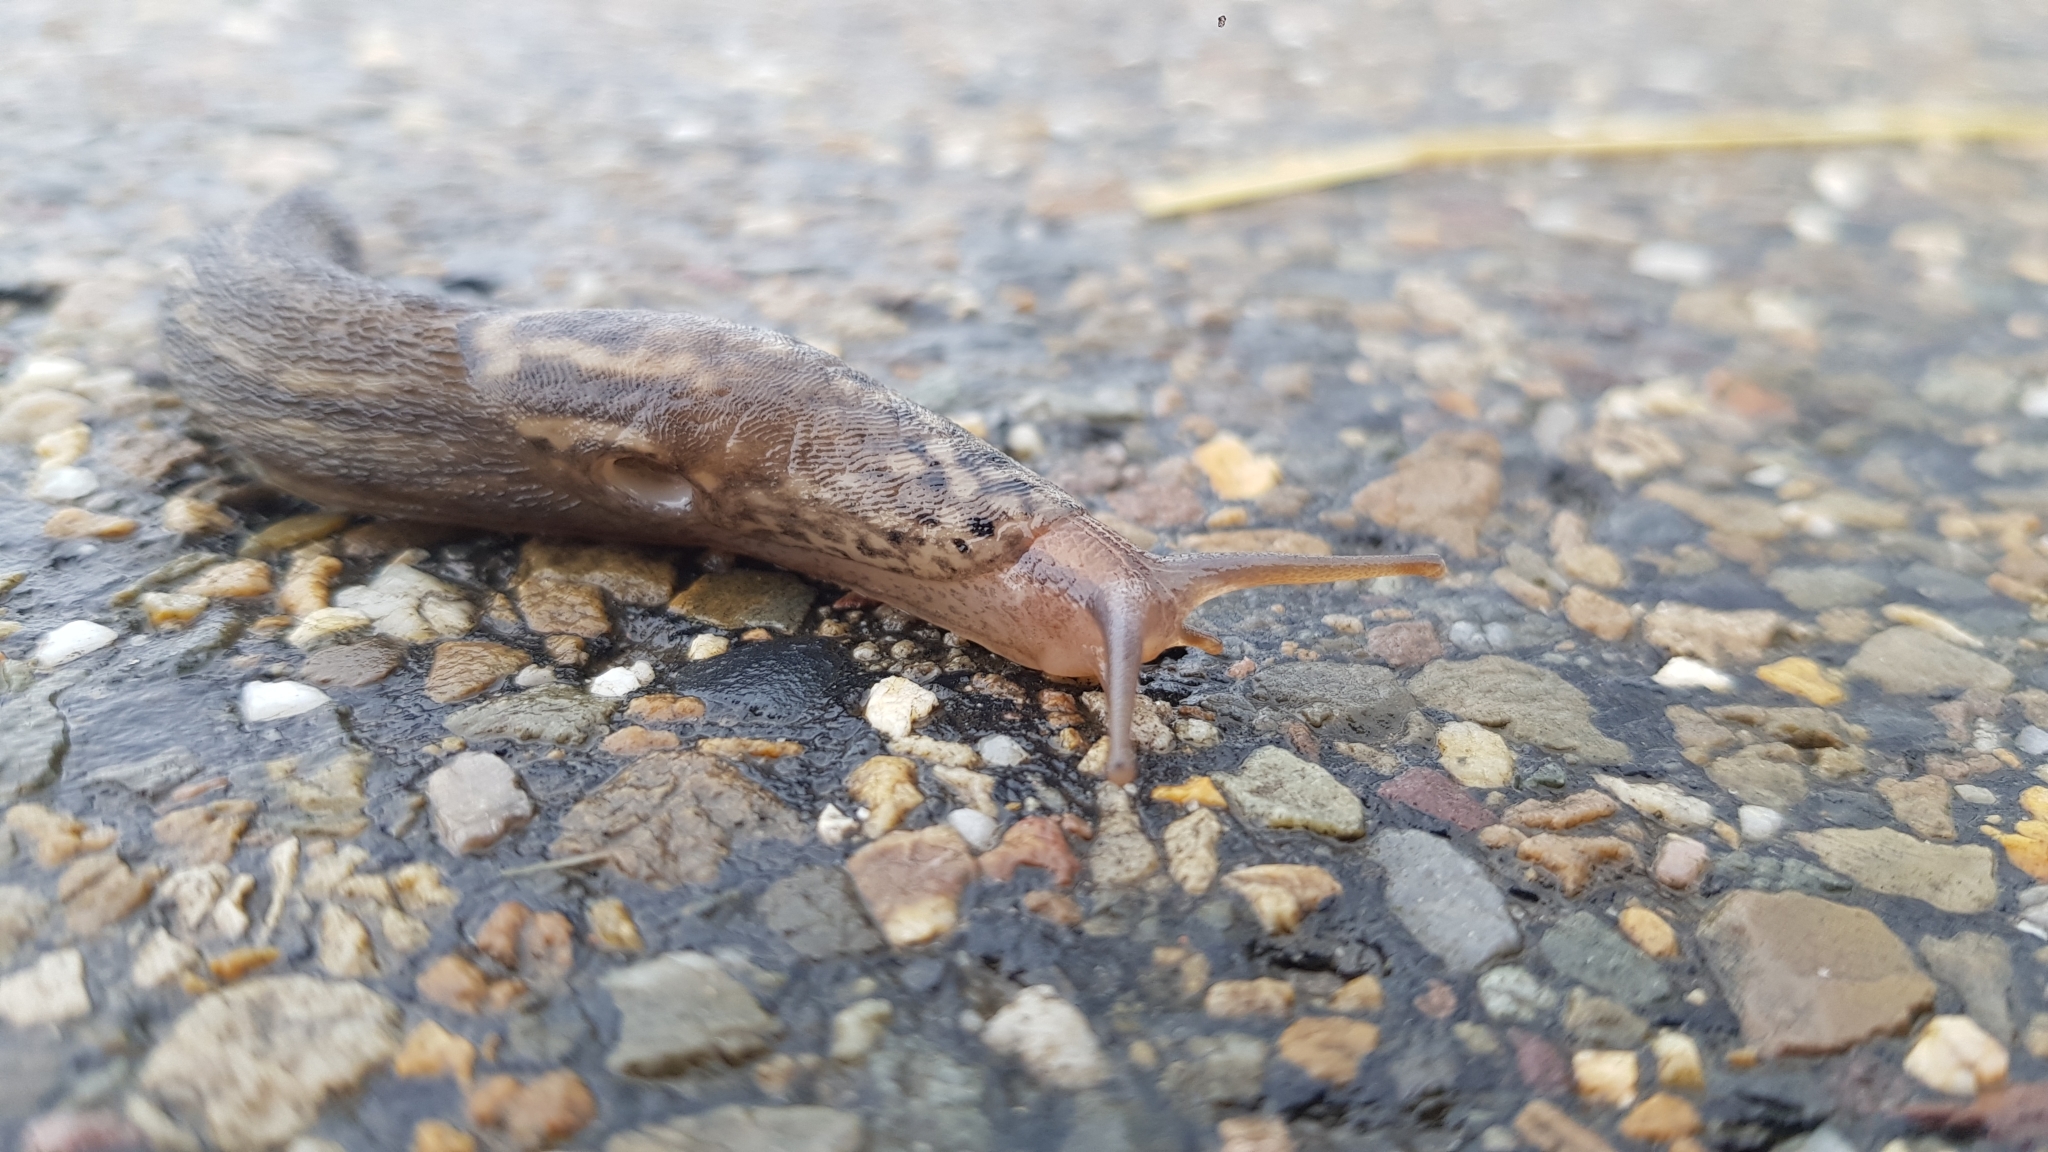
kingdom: Animalia
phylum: Mollusca
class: Gastropoda
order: Stylommatophora
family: Limacidae
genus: Limax
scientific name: Limax maximus
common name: Great grey slug
